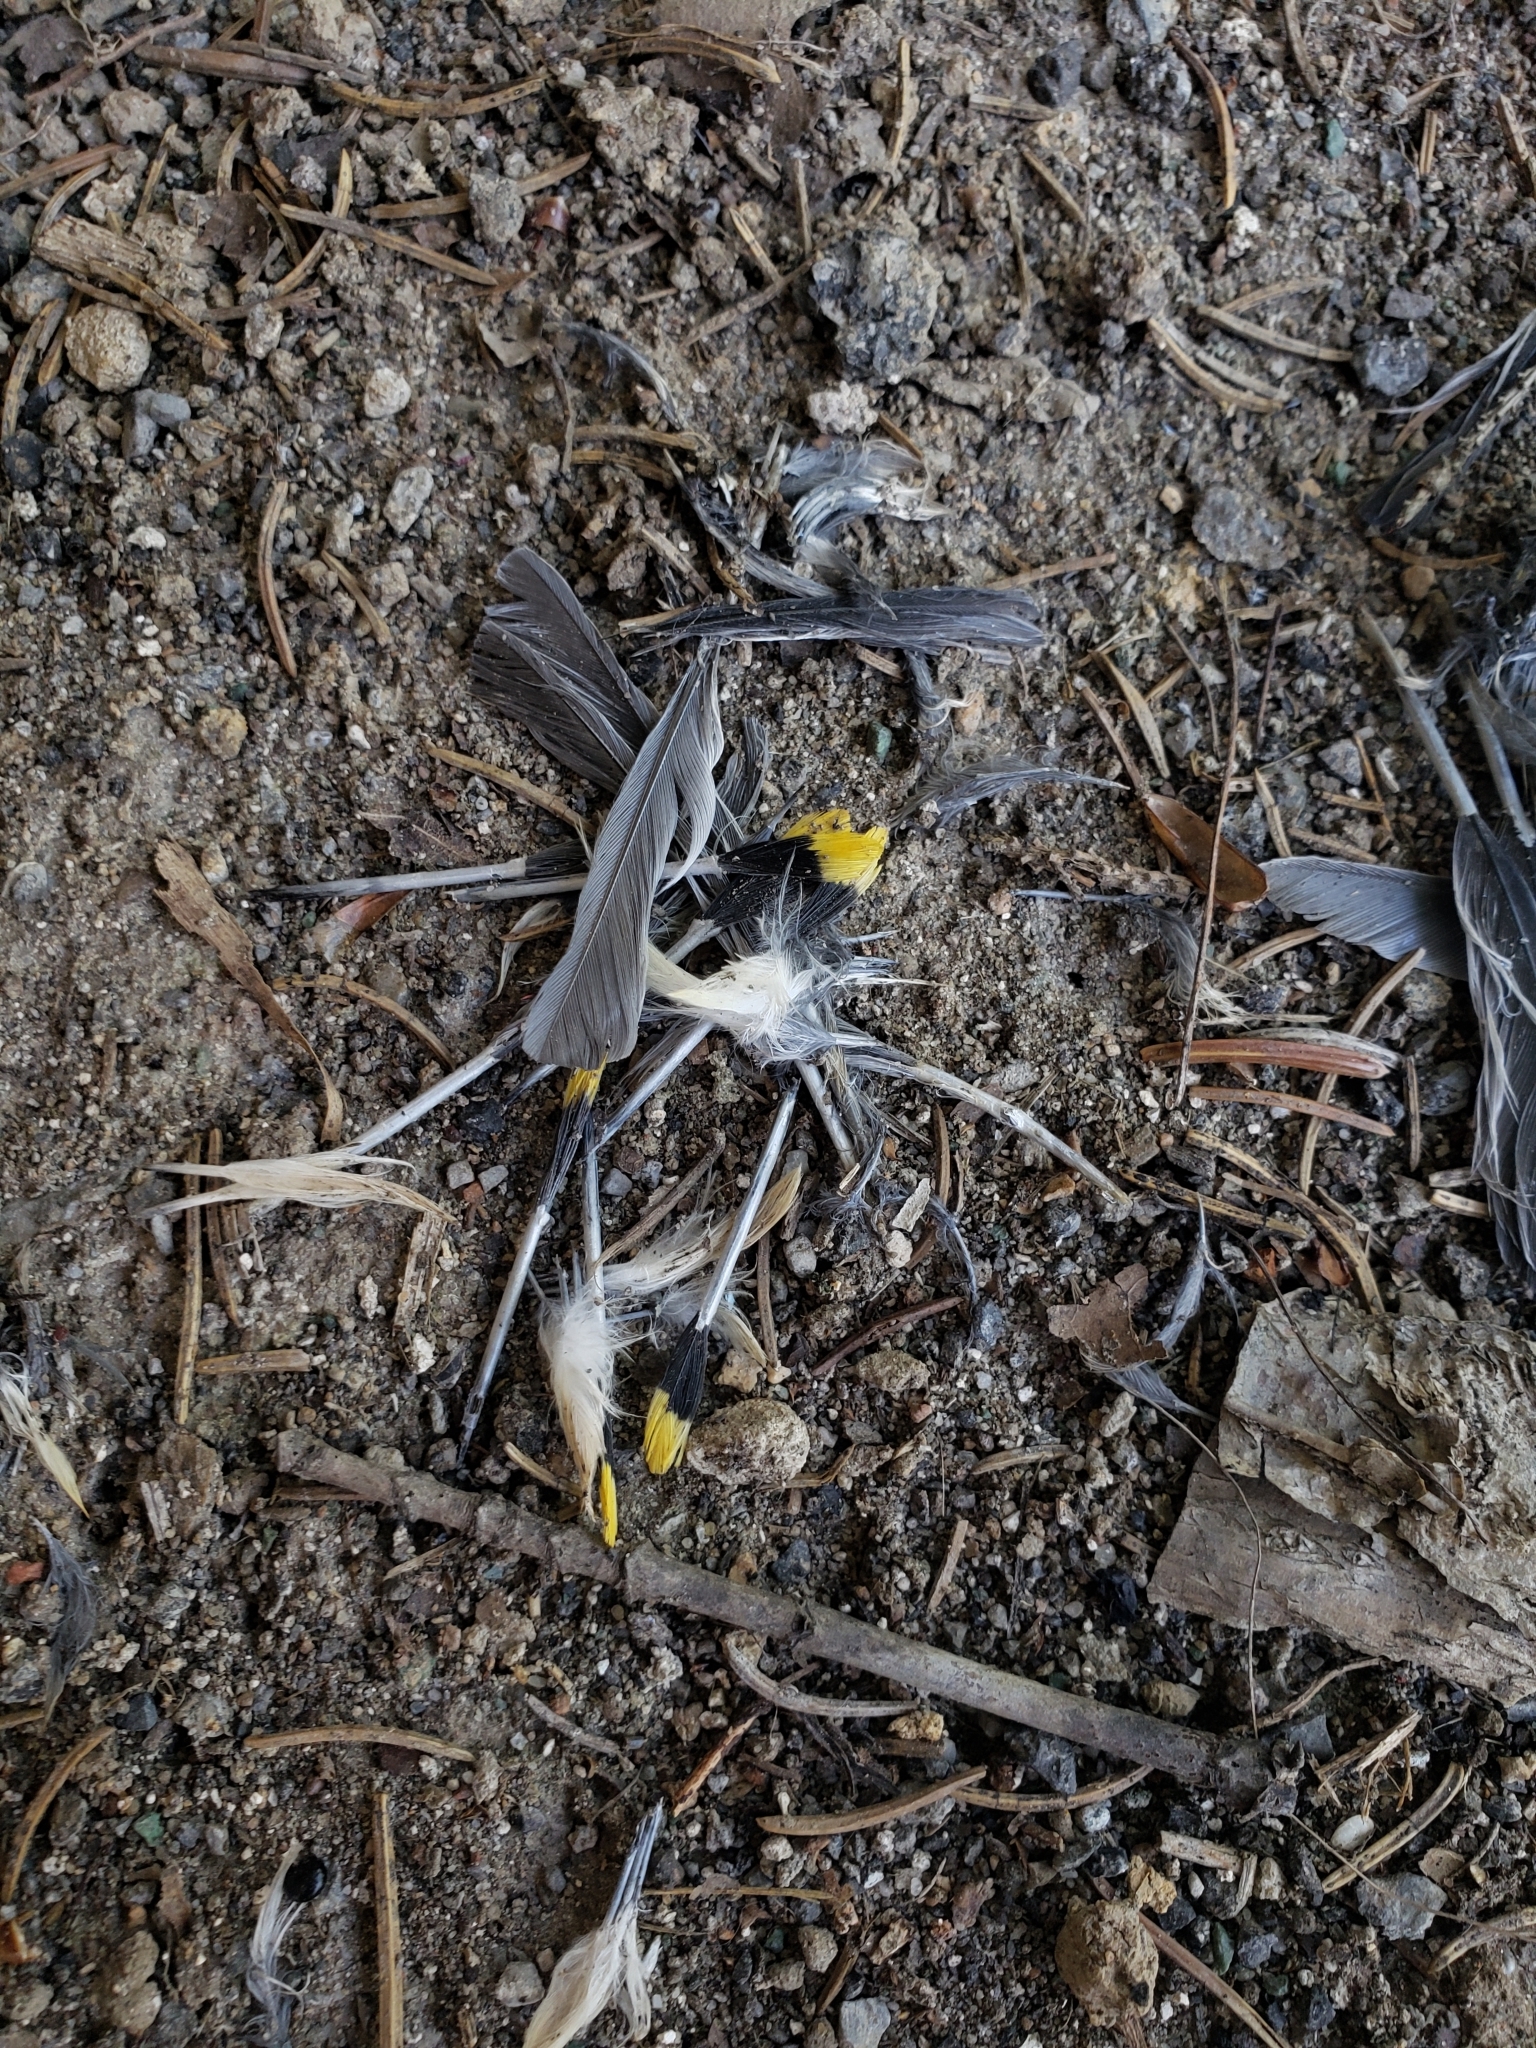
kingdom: Animalia
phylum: Chordata
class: Aves
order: Passeriformes
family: Bombycillidae
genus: Bombycilla
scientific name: Bombycilla cedrorum
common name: Cedar waxwing
